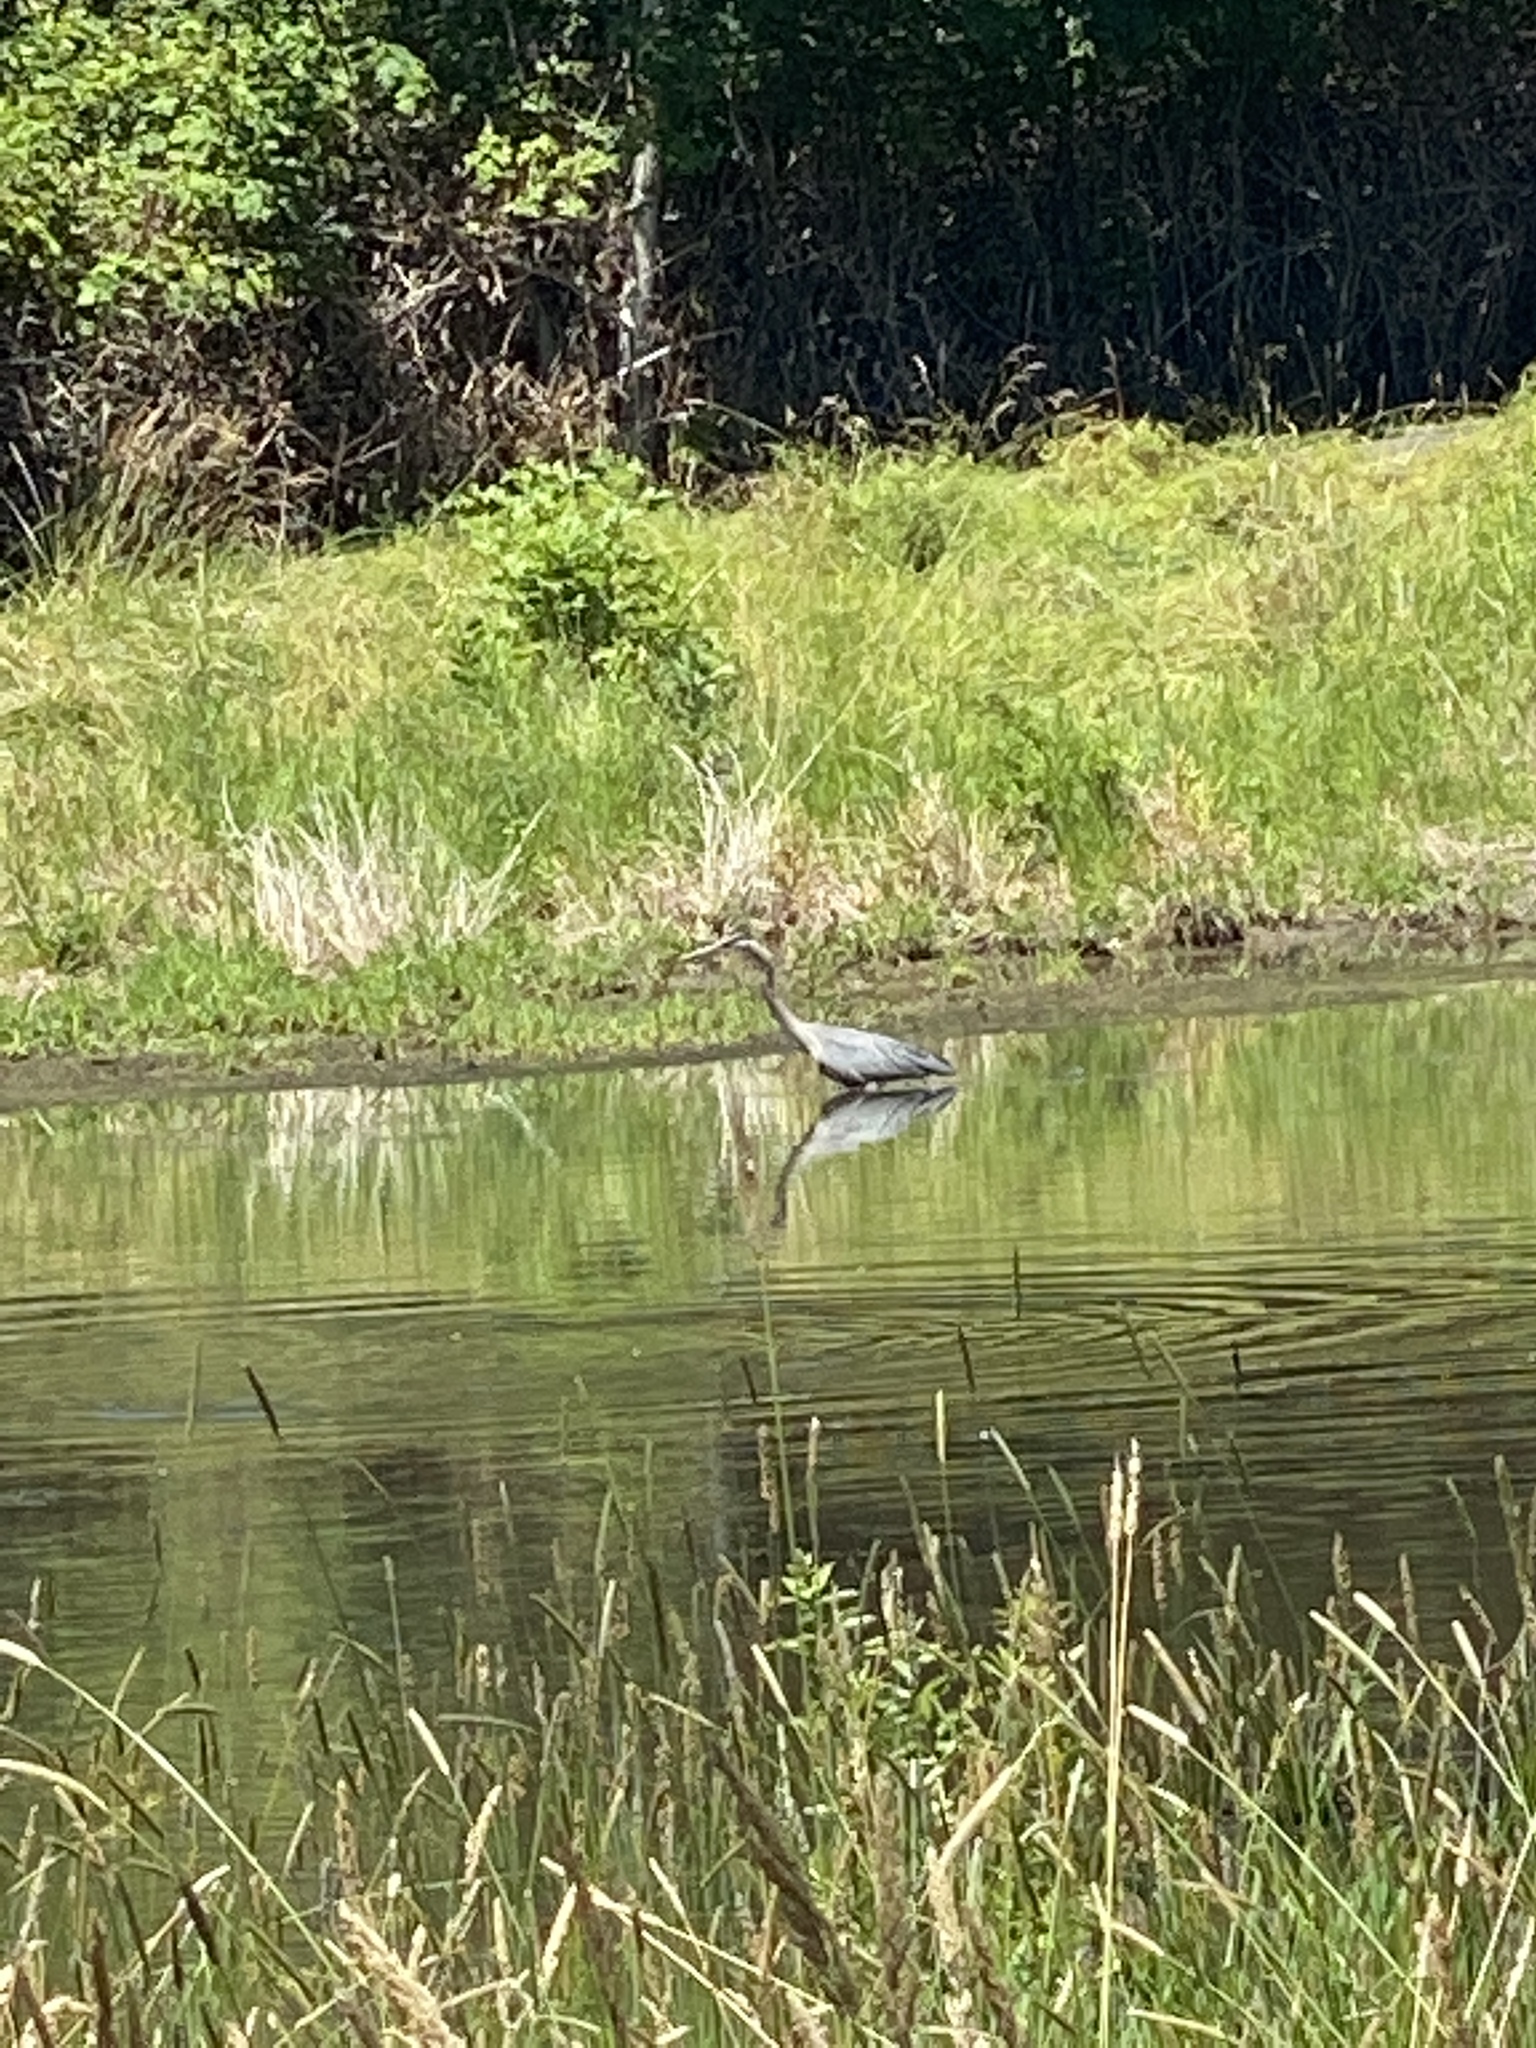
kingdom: Animalia
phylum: Chordata
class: Aves
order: Pelecaniformes
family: Ardeidae
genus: Ardea
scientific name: Ardea herodias
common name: Great blue heron
